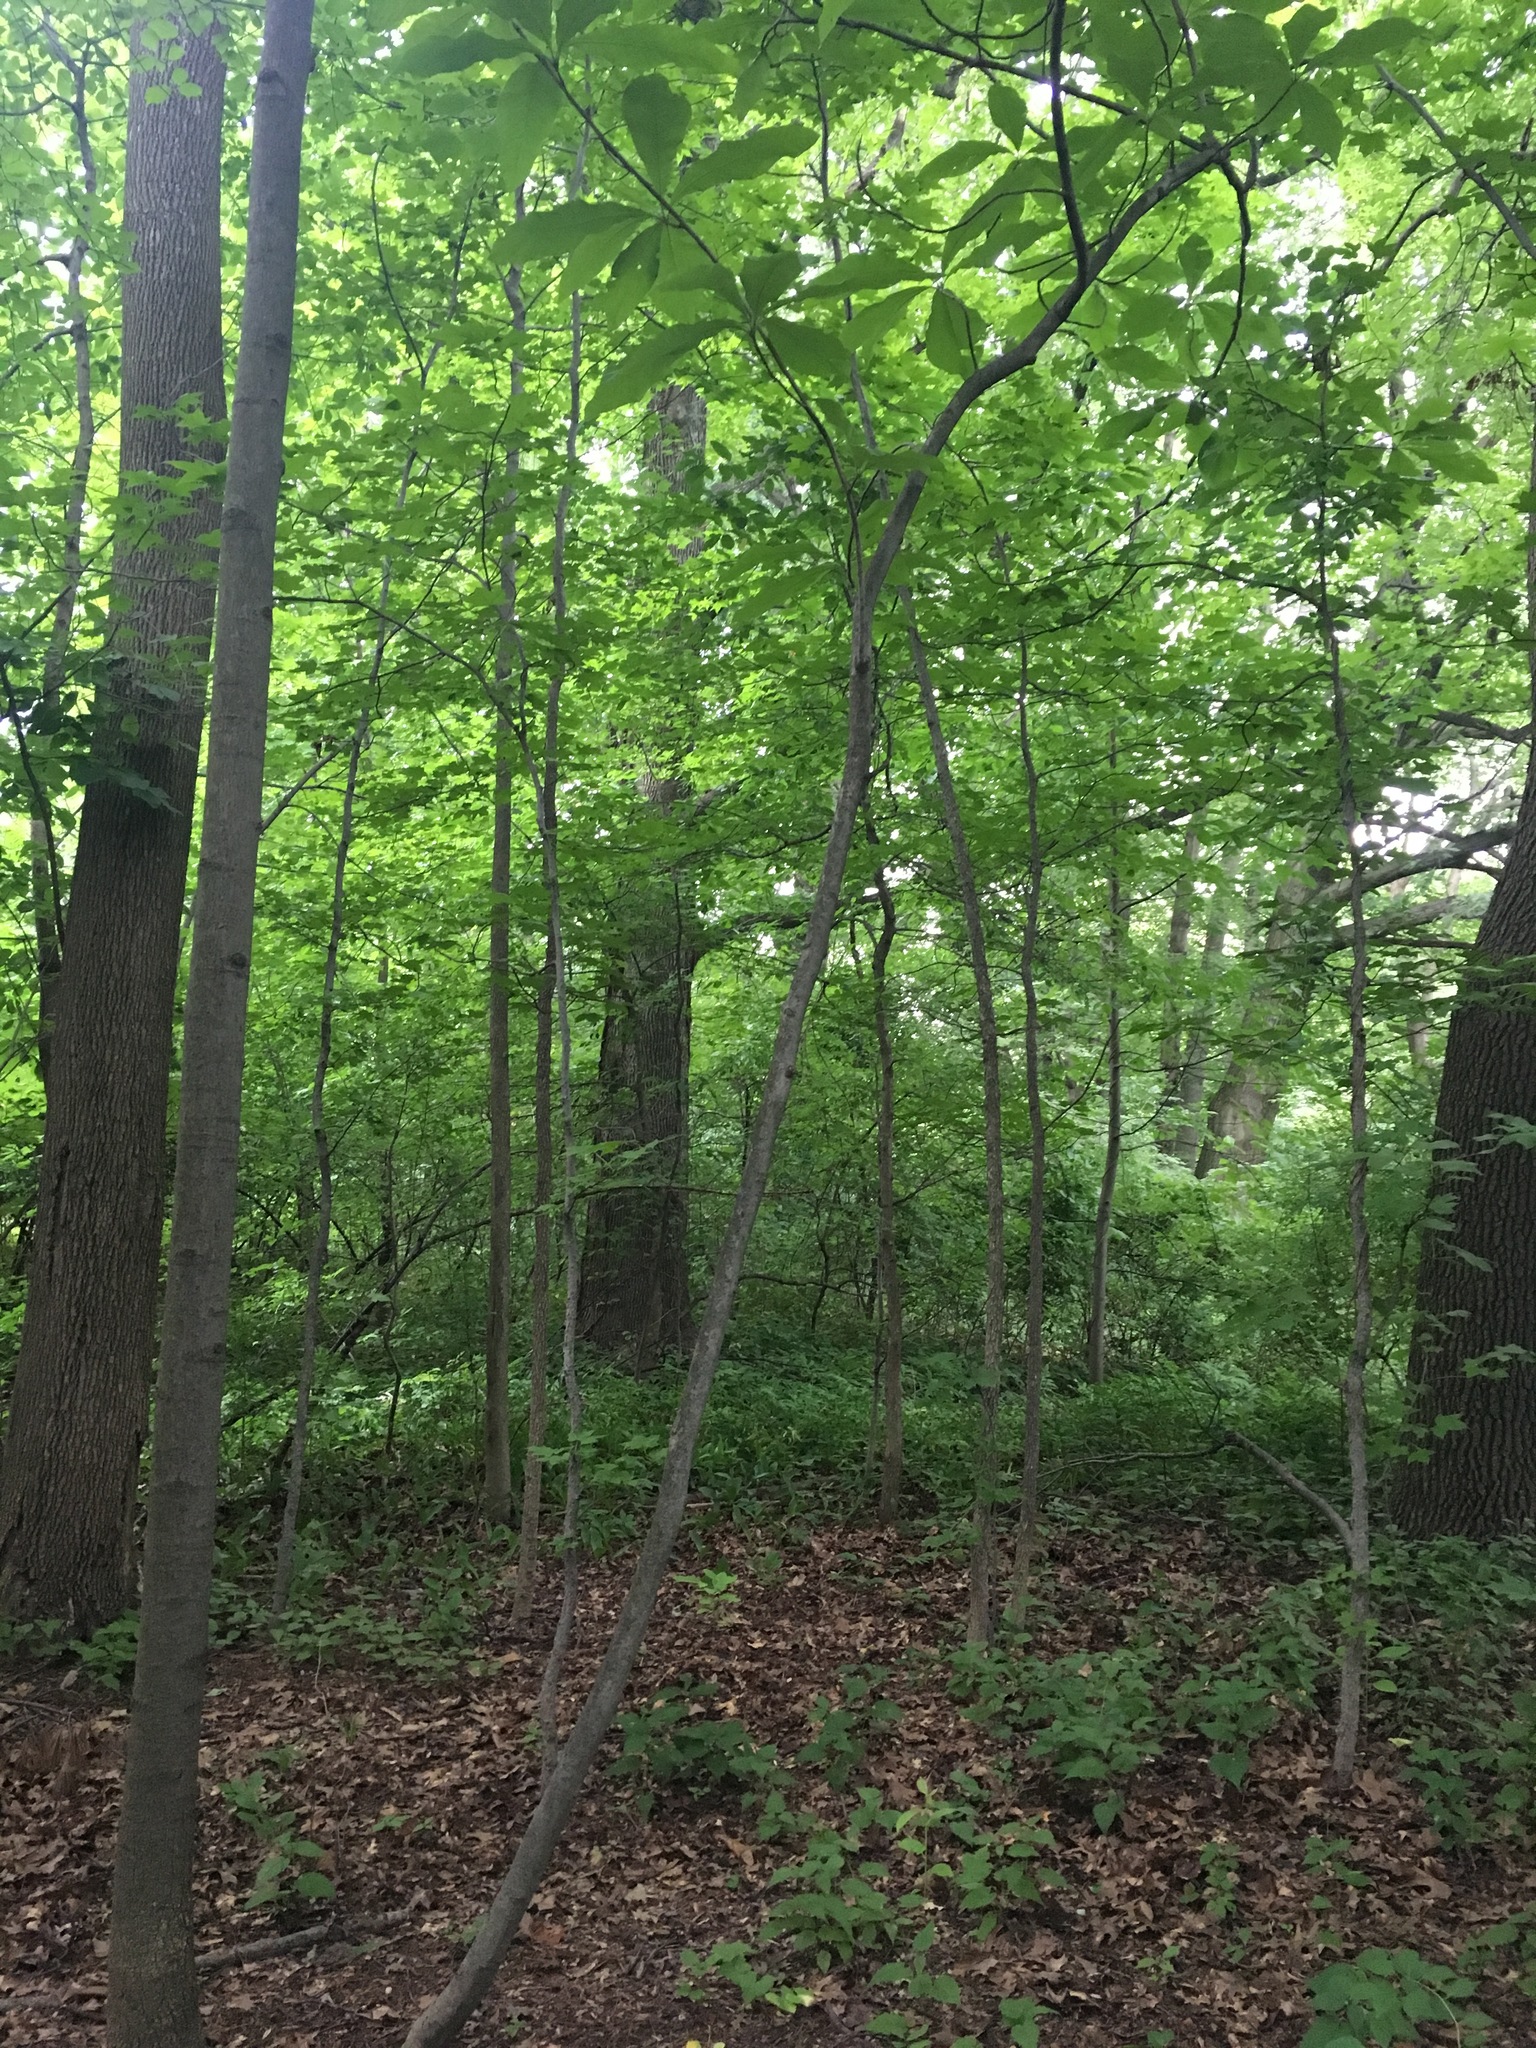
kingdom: Plantae
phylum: Tracheophyta
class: Magnoliopsida
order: Magnoliales
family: Magnoliaceae
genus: Magnolia
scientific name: Magnolia tripetala
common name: Umbrella magnolia
